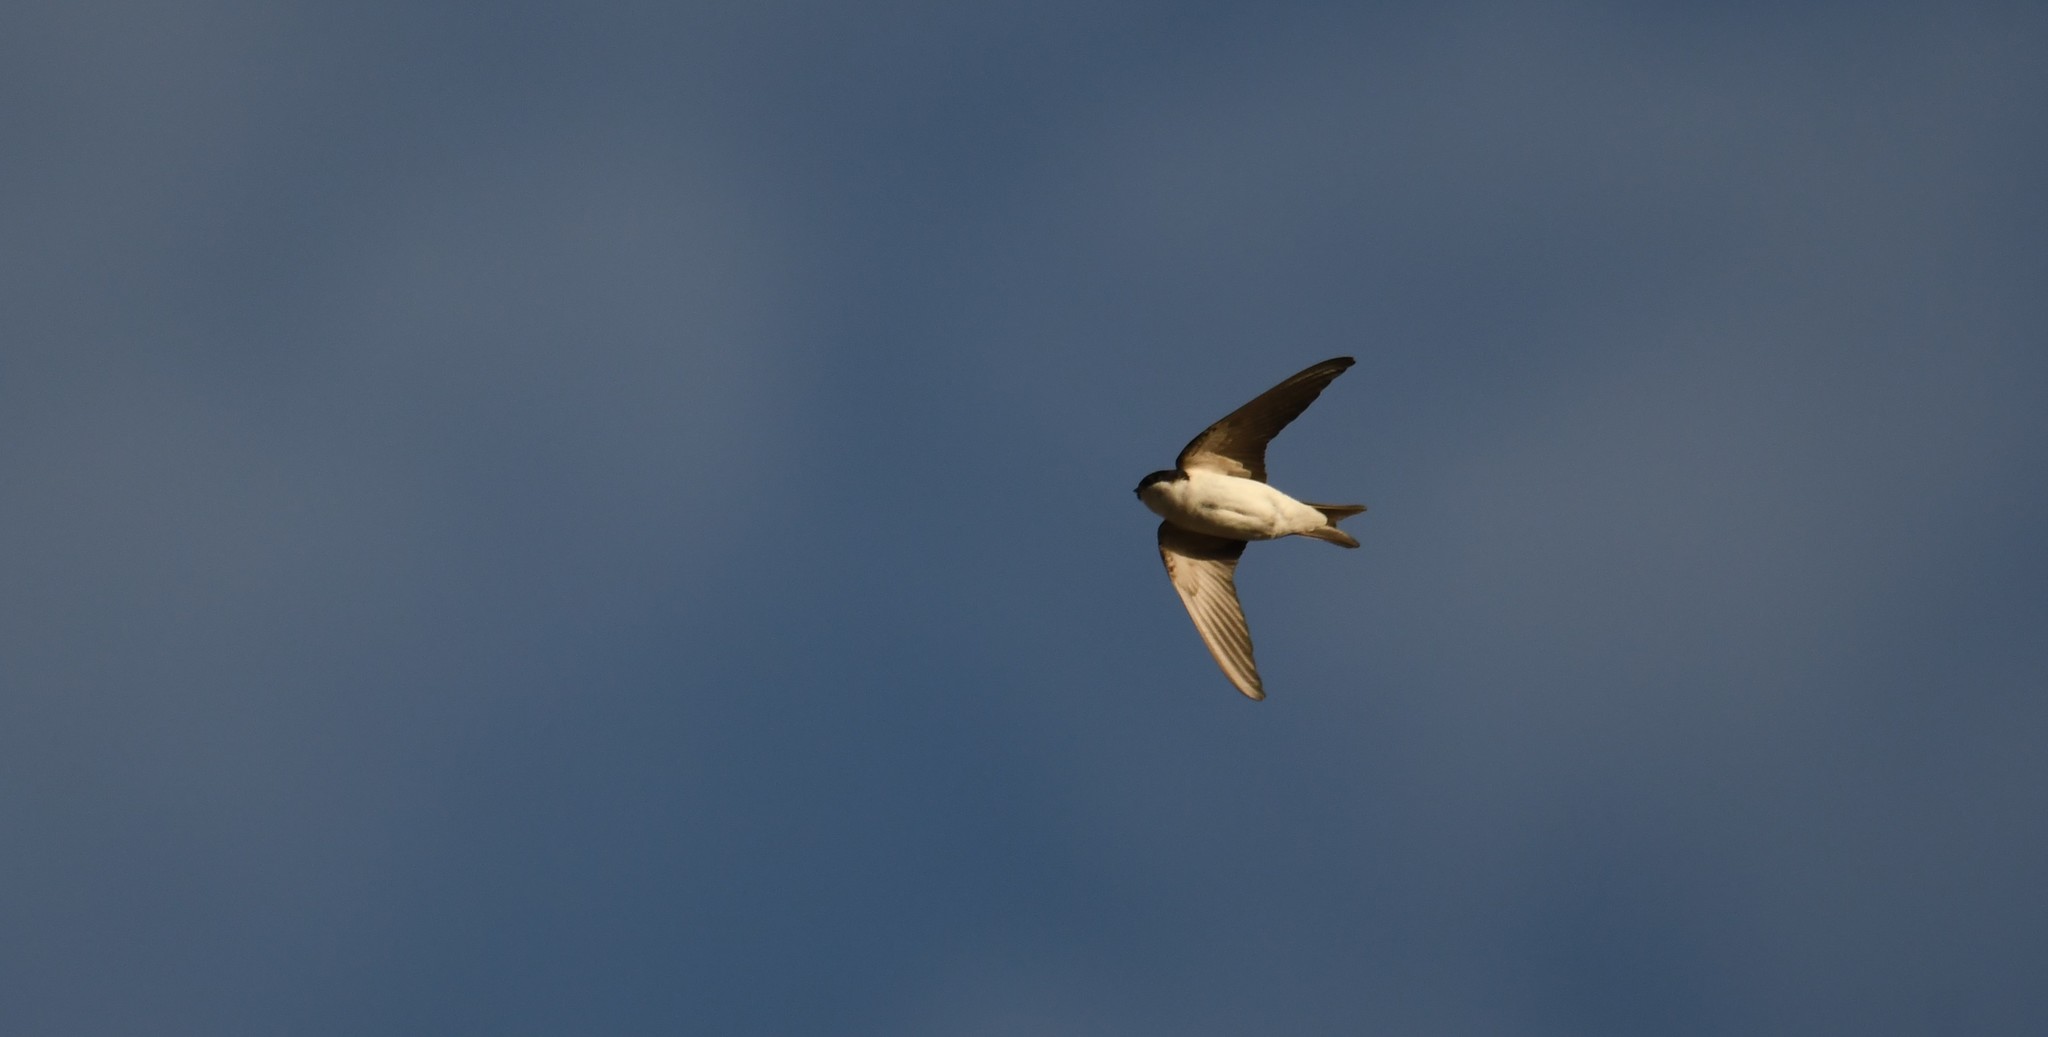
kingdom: Animalia
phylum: Chordata
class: Aves
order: Passeriformes
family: Hirundinidae
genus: Delichon
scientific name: Delichon urbicum
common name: Common house martin
